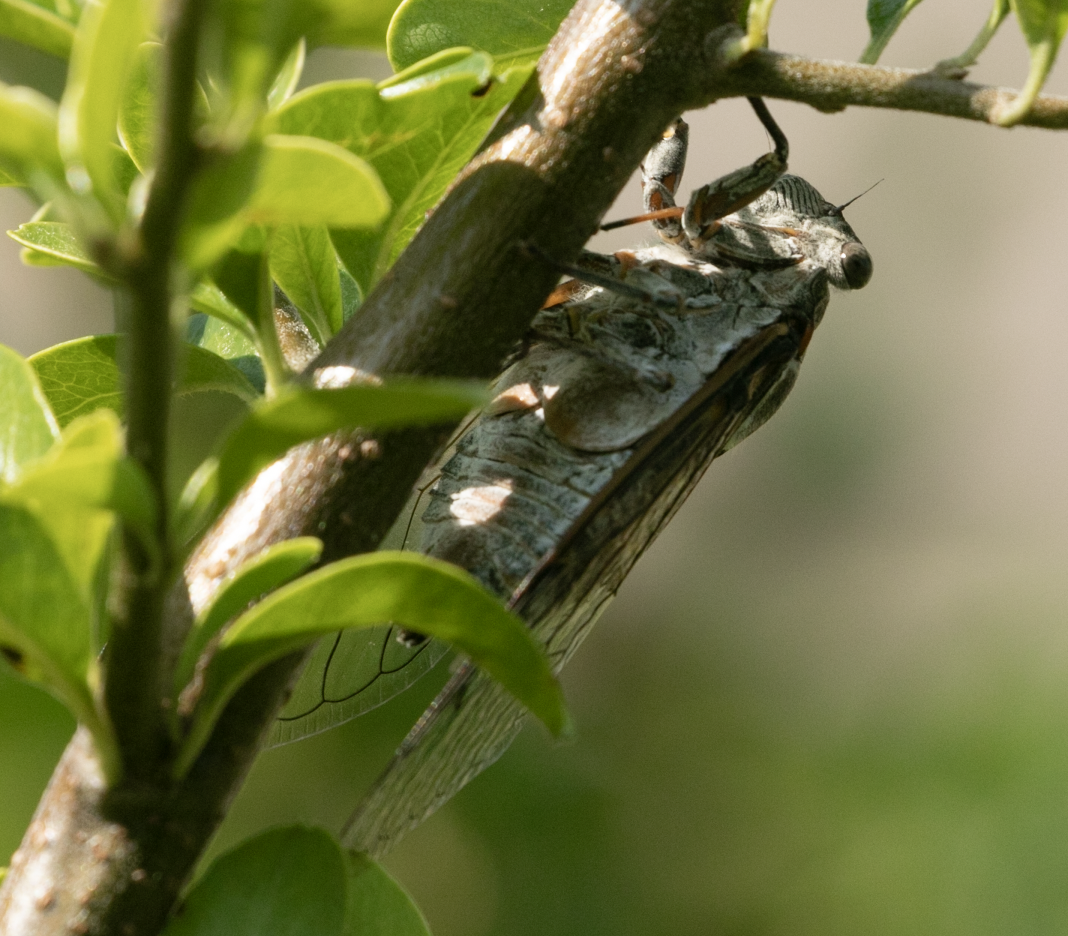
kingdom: Animalia
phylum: Arthropoda
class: Insecta
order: Hemiptera
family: Cicadidae
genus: Lyristes
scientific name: Lyristes plebejus
